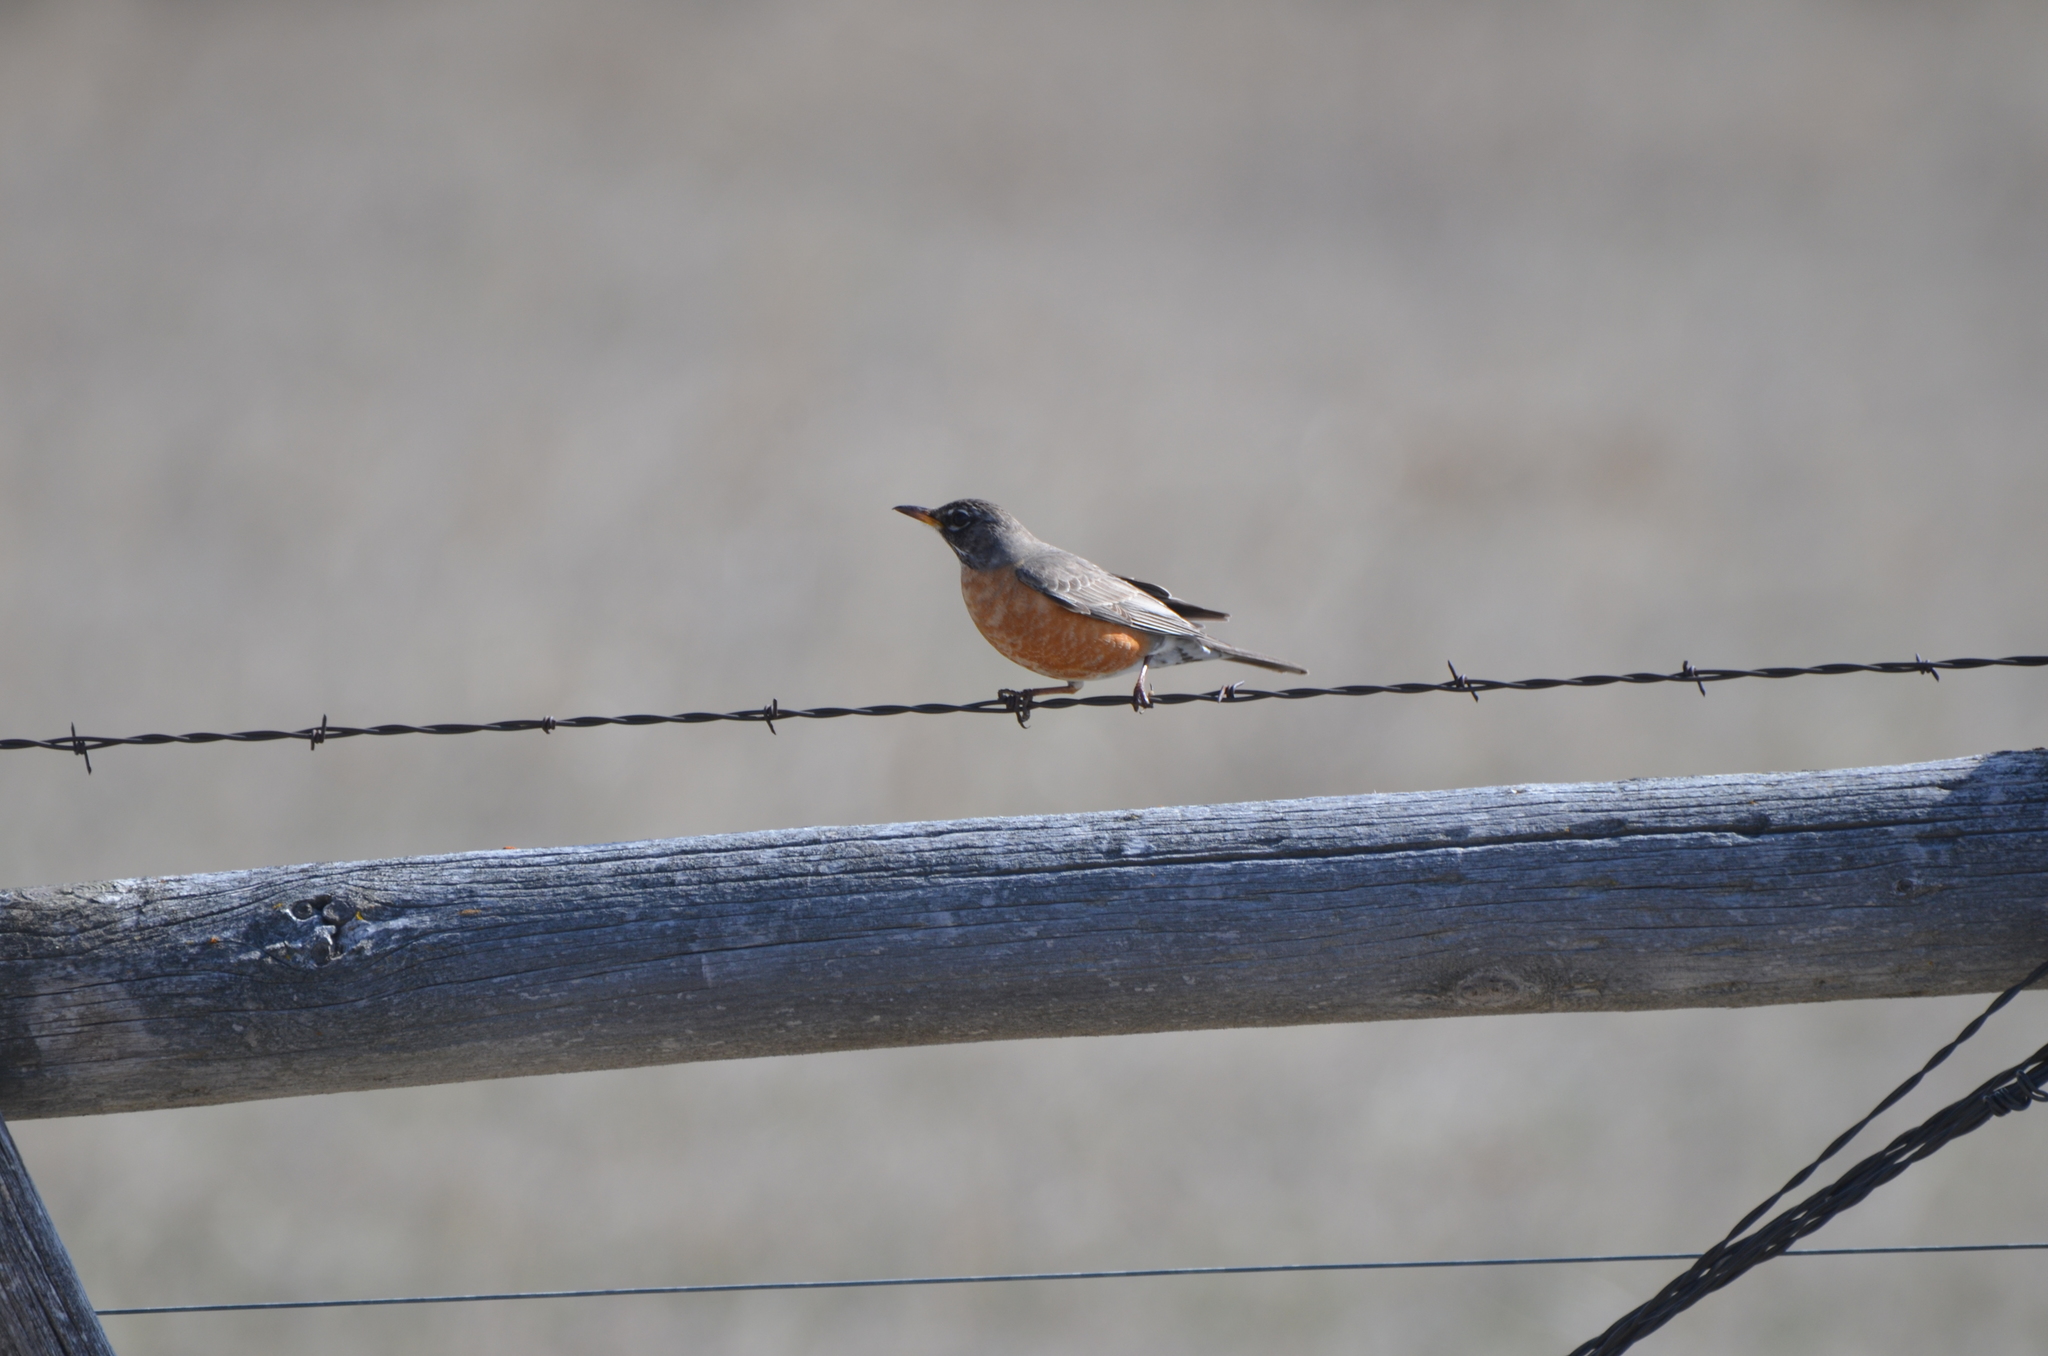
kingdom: Animalia
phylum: Chordata
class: Aves
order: Passeriformes
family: Turdidae
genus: Turdus
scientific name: Turdus migratorius
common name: American robin
